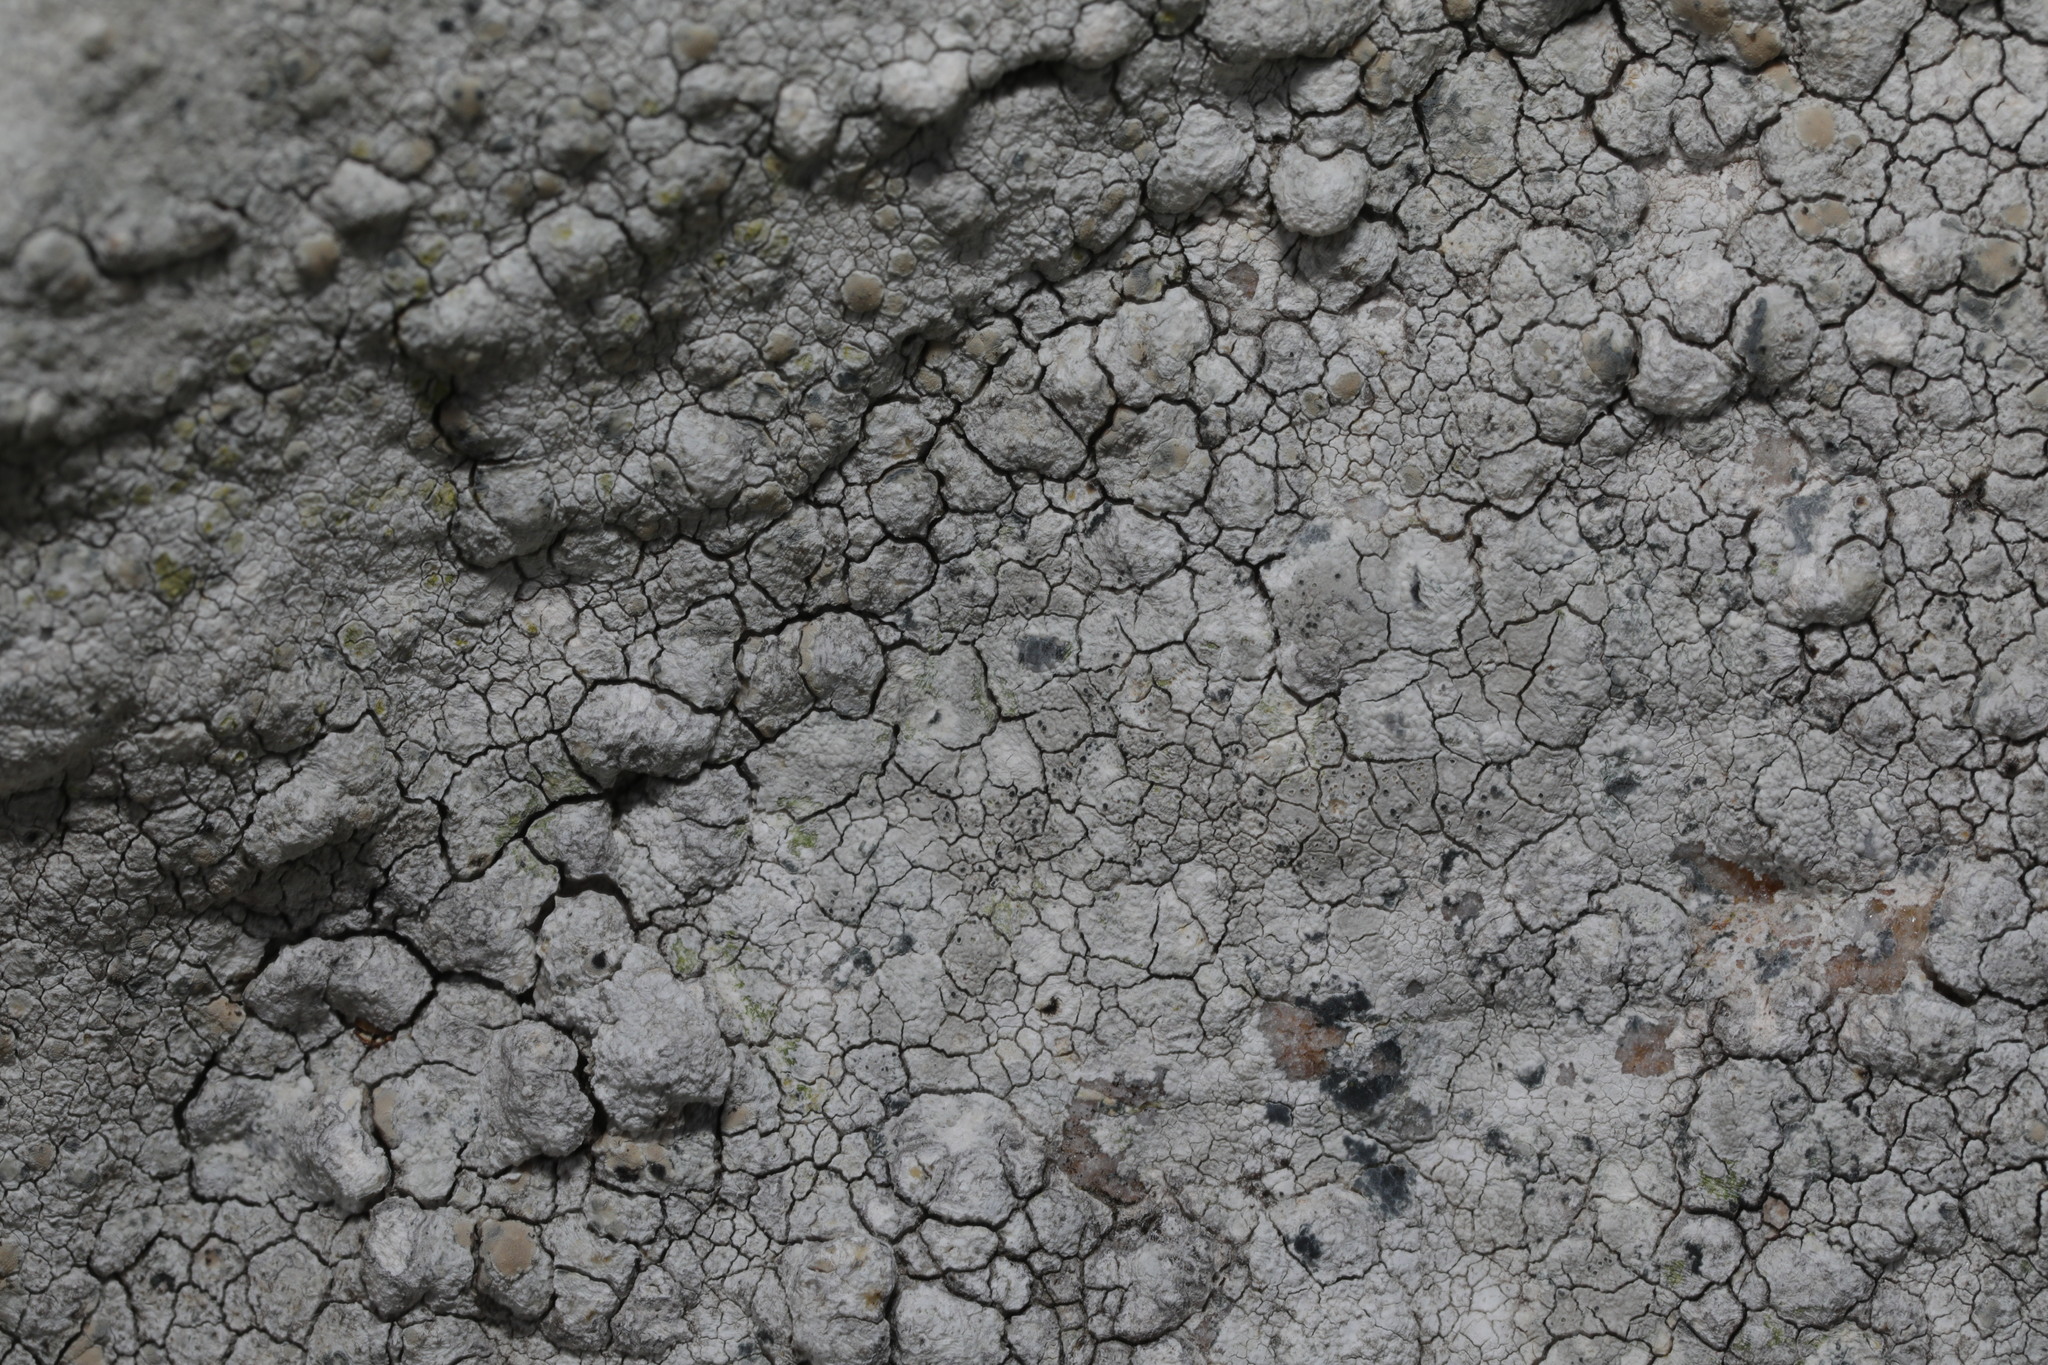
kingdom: Fungi
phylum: Ascomycota
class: Lecanoromycetes
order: Lecanorales
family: Lecanoraceae
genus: Glaucomaria
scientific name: Glaucomaria rupicola
